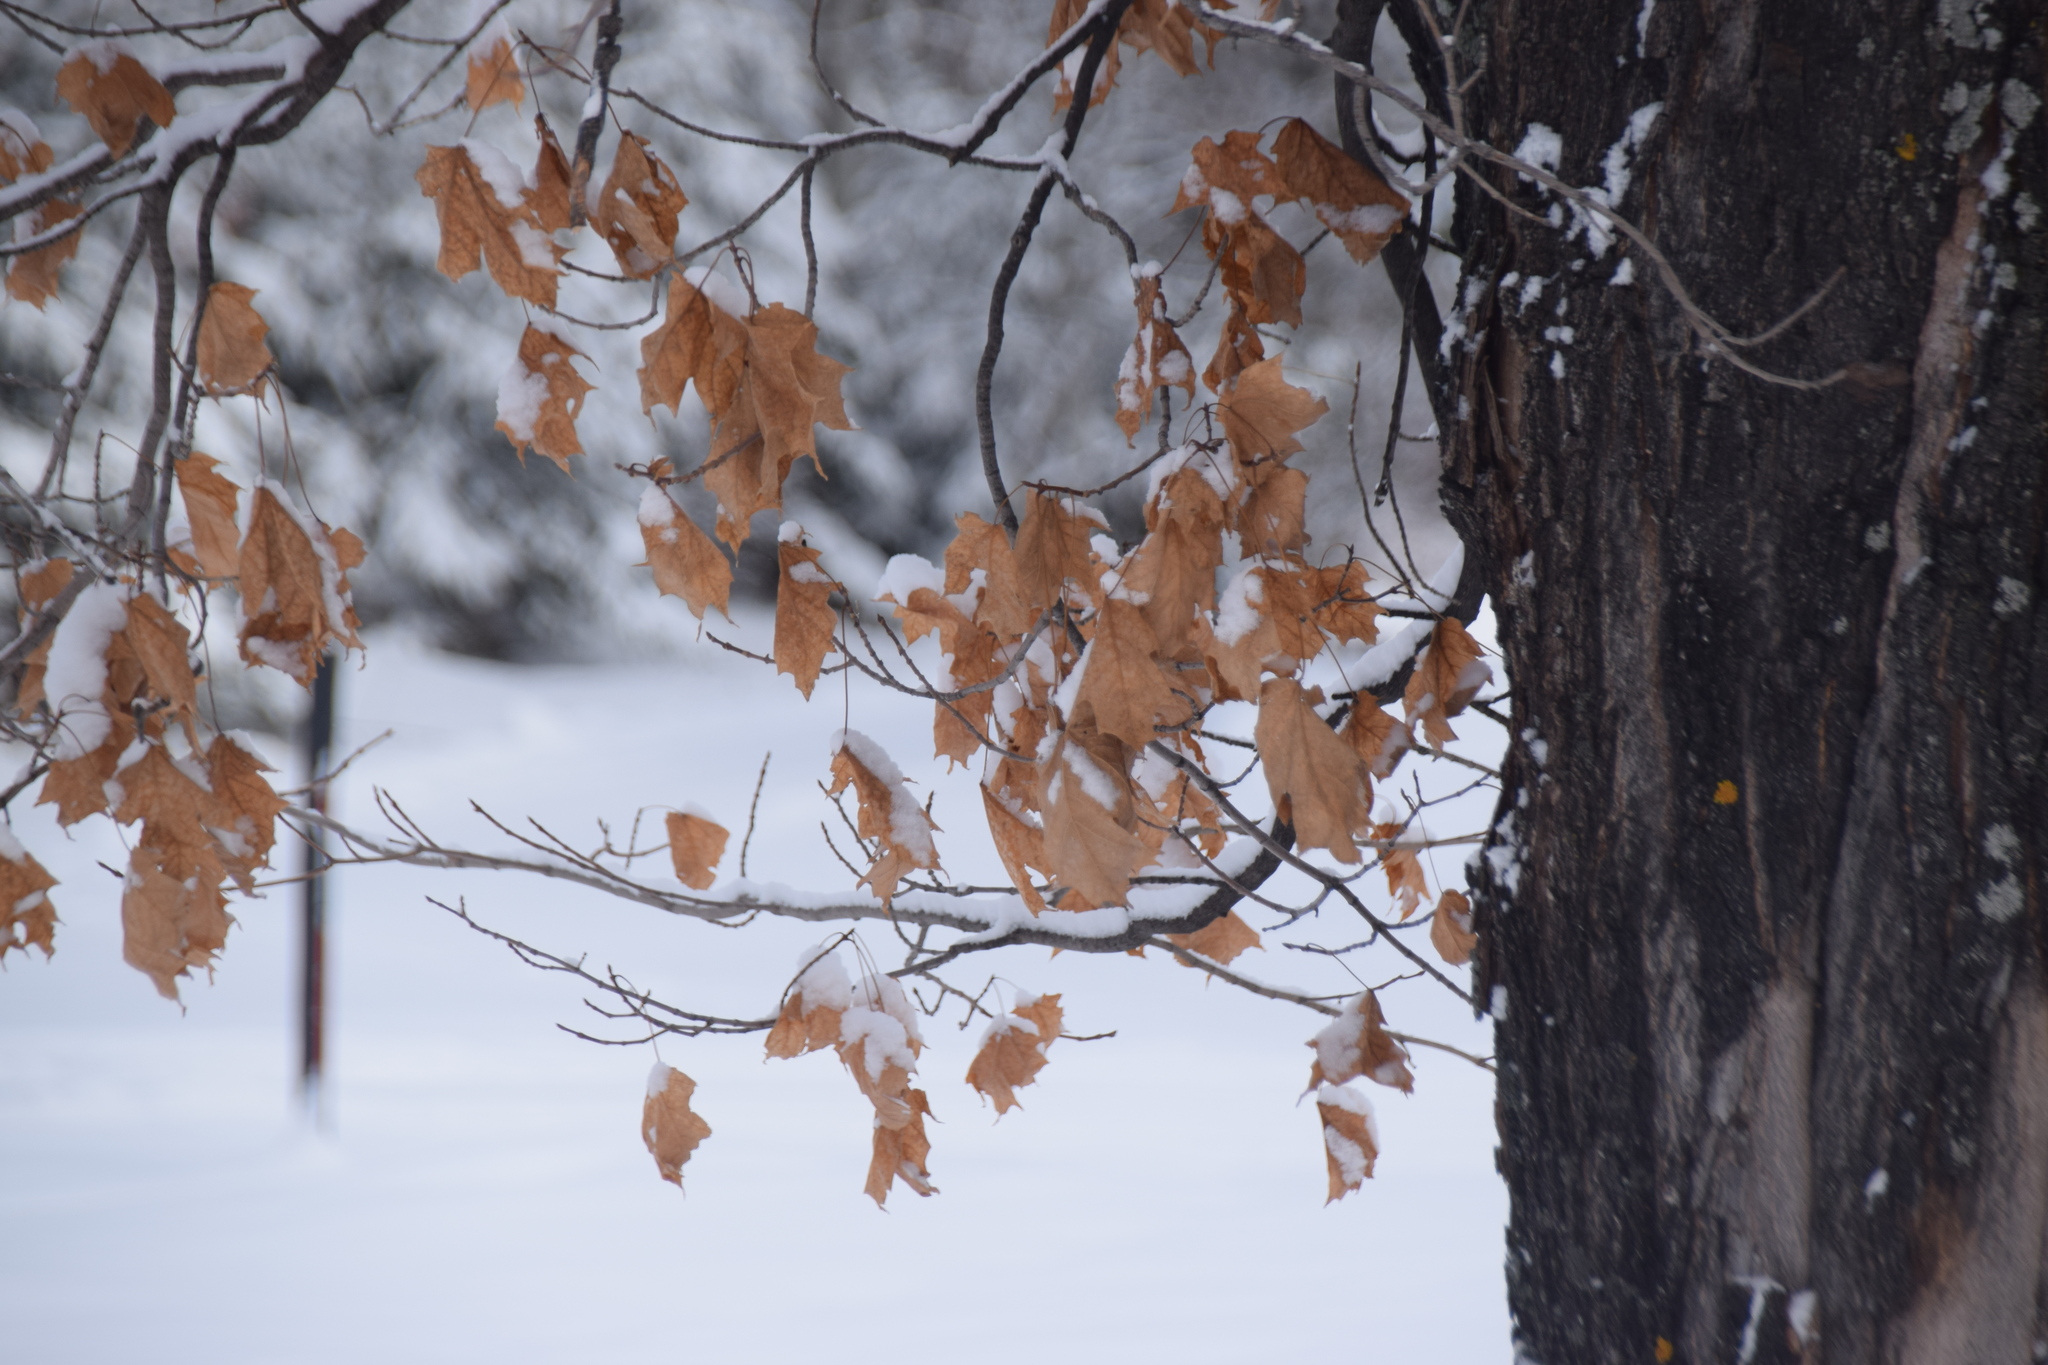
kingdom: Plantae
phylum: Tracheophyta
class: Magnoliopsida
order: Sapindales
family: Sapindaceae
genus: Acer
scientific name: Acer saccharum
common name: Sugar maple
